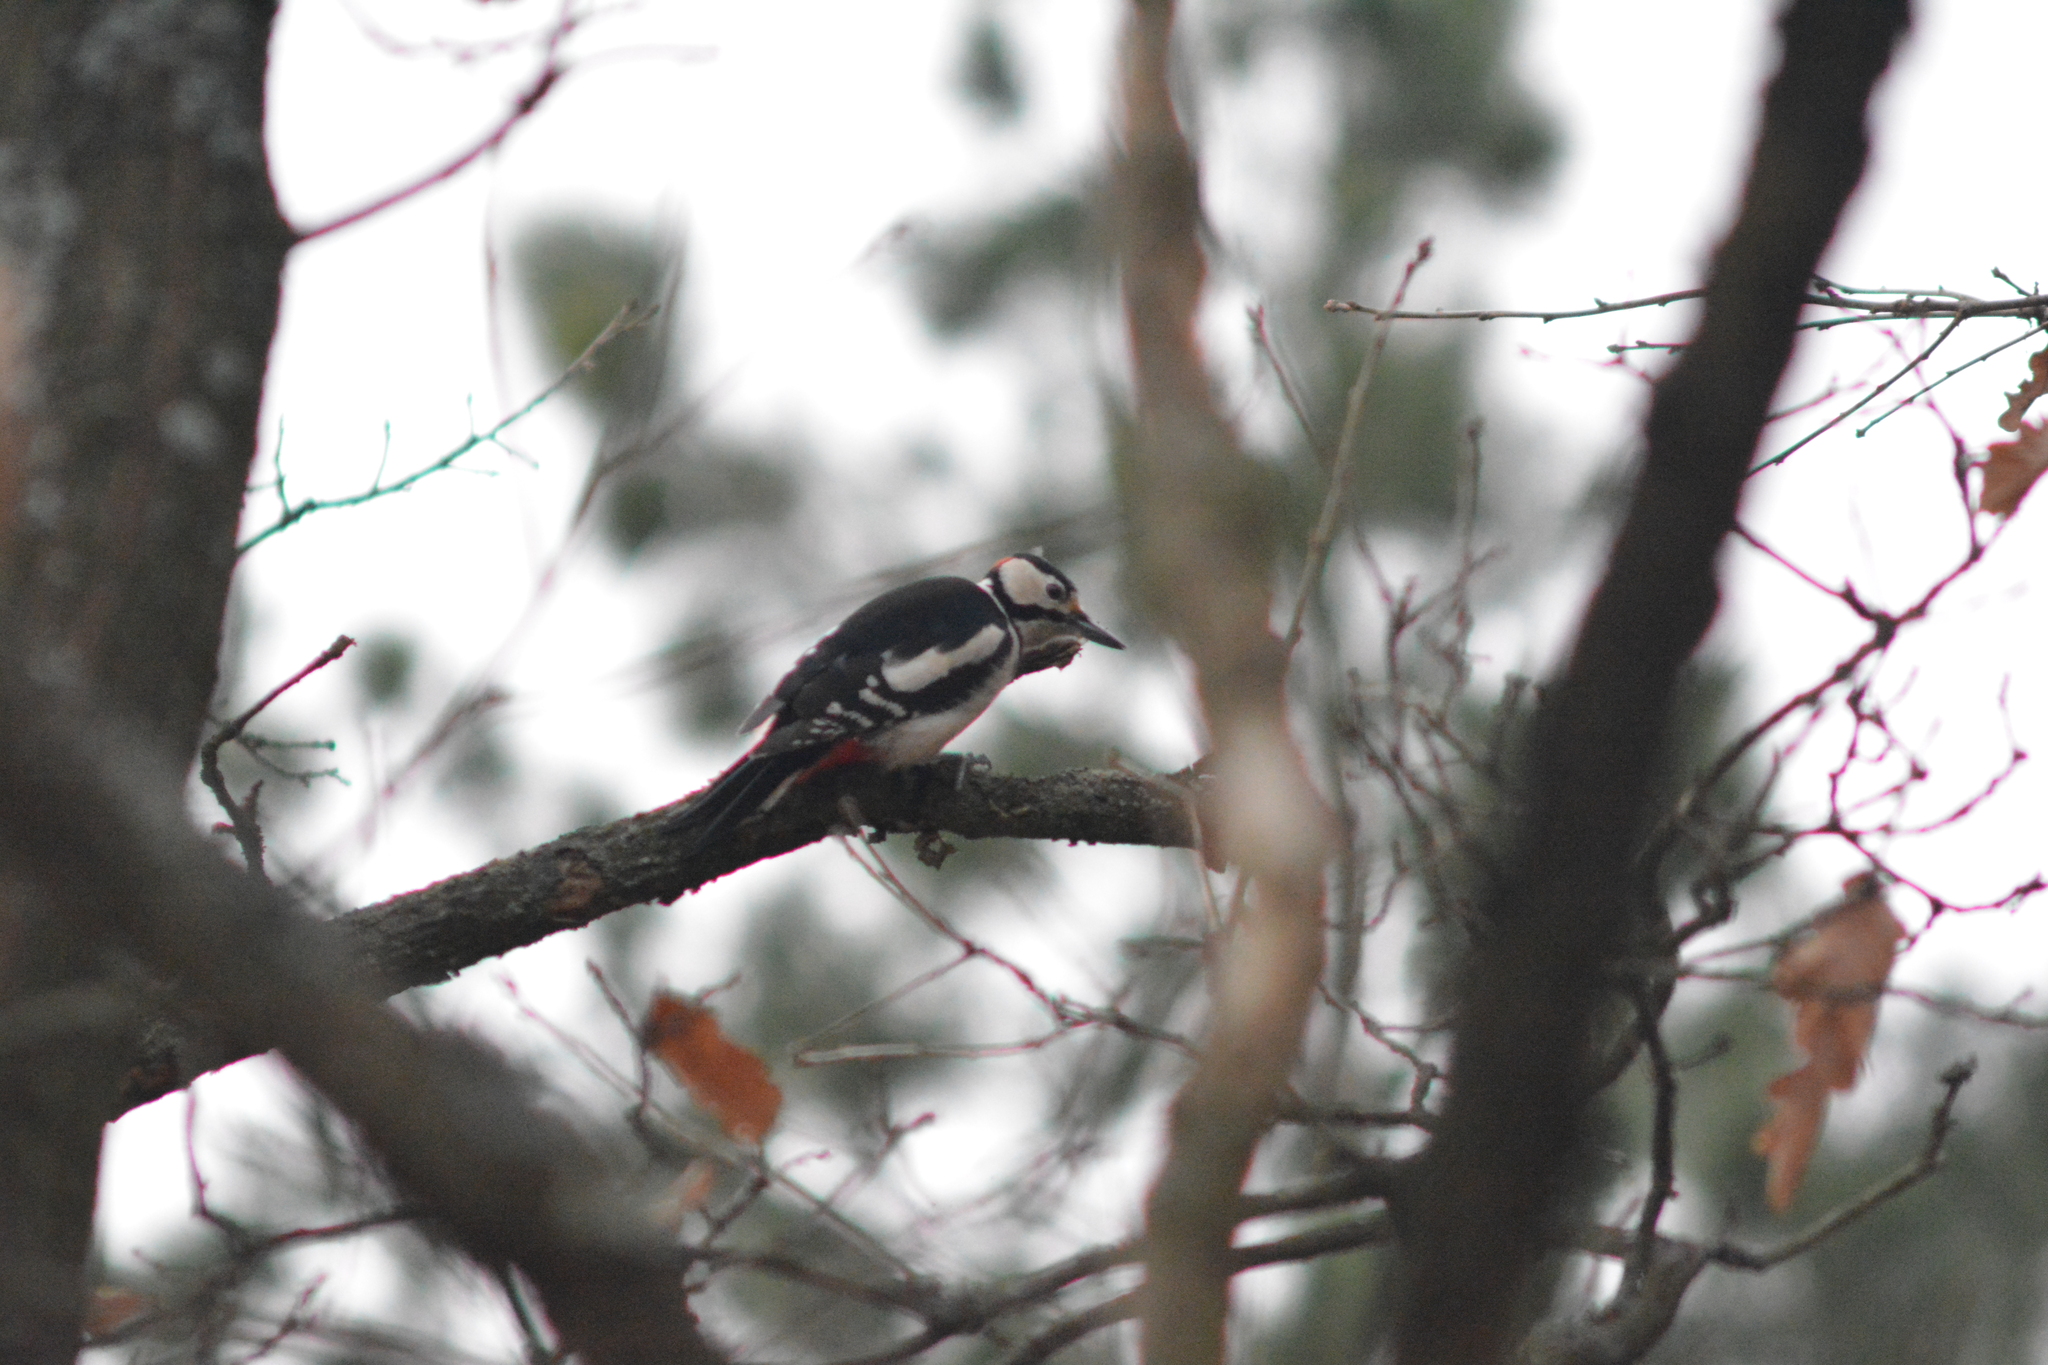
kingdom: Animalia
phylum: Chordata
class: Aves
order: Piciformes
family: Picidae
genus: Dendrocopos
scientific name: Dendrocopos major
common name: Great spotted woodpecker
